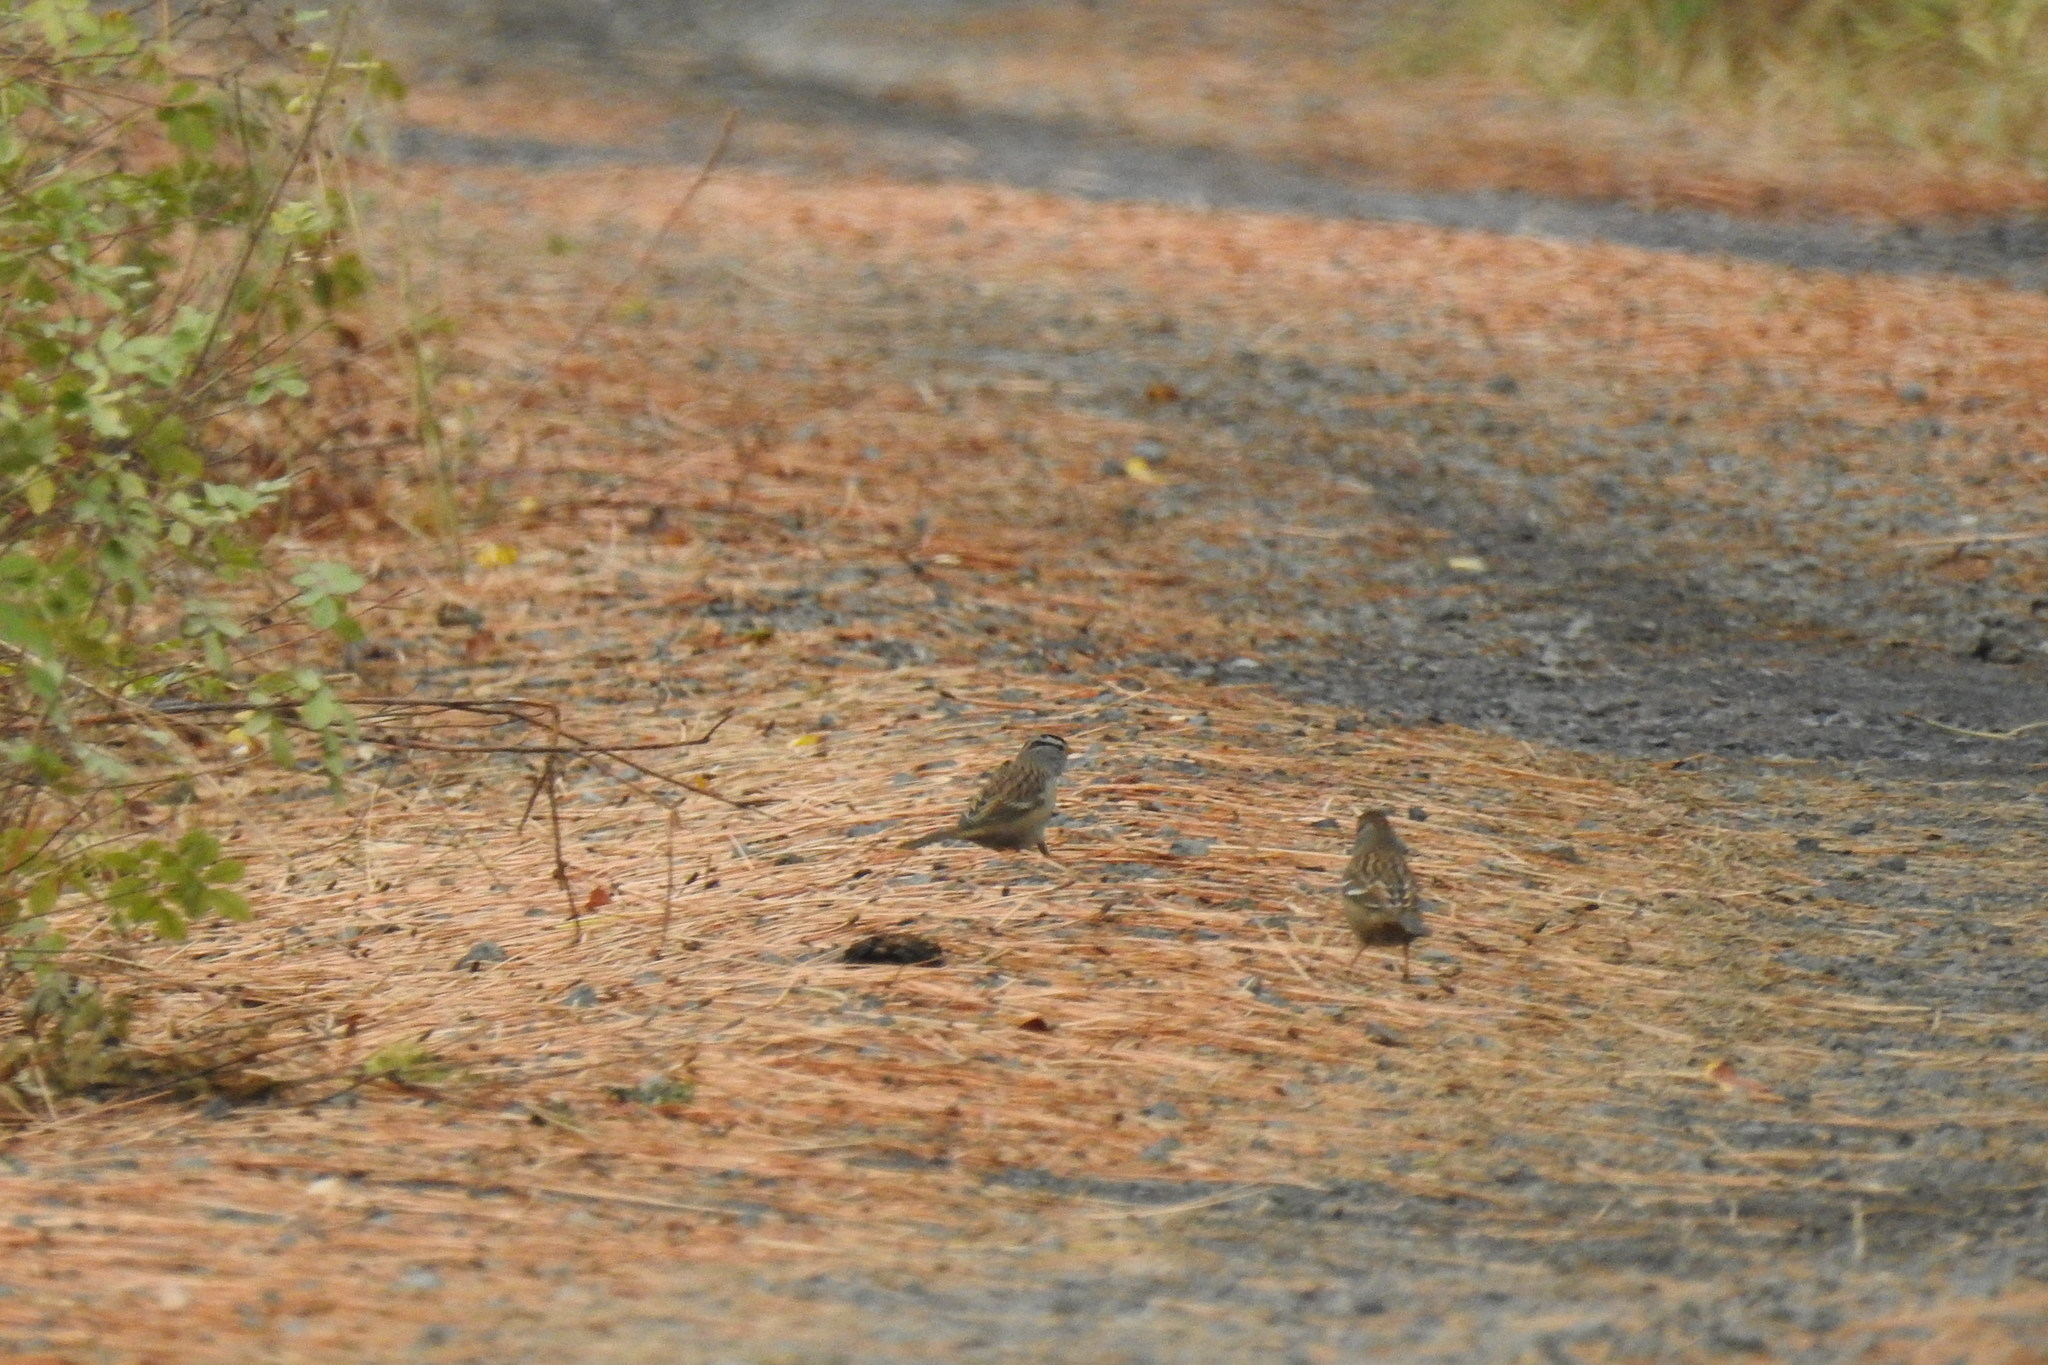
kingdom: Animalia
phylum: Chordata
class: Aves
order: Passeriformes
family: Passerellidae
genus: Zonotrichia
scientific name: Zonotrichia leucophrys
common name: White-crowned sparrow
